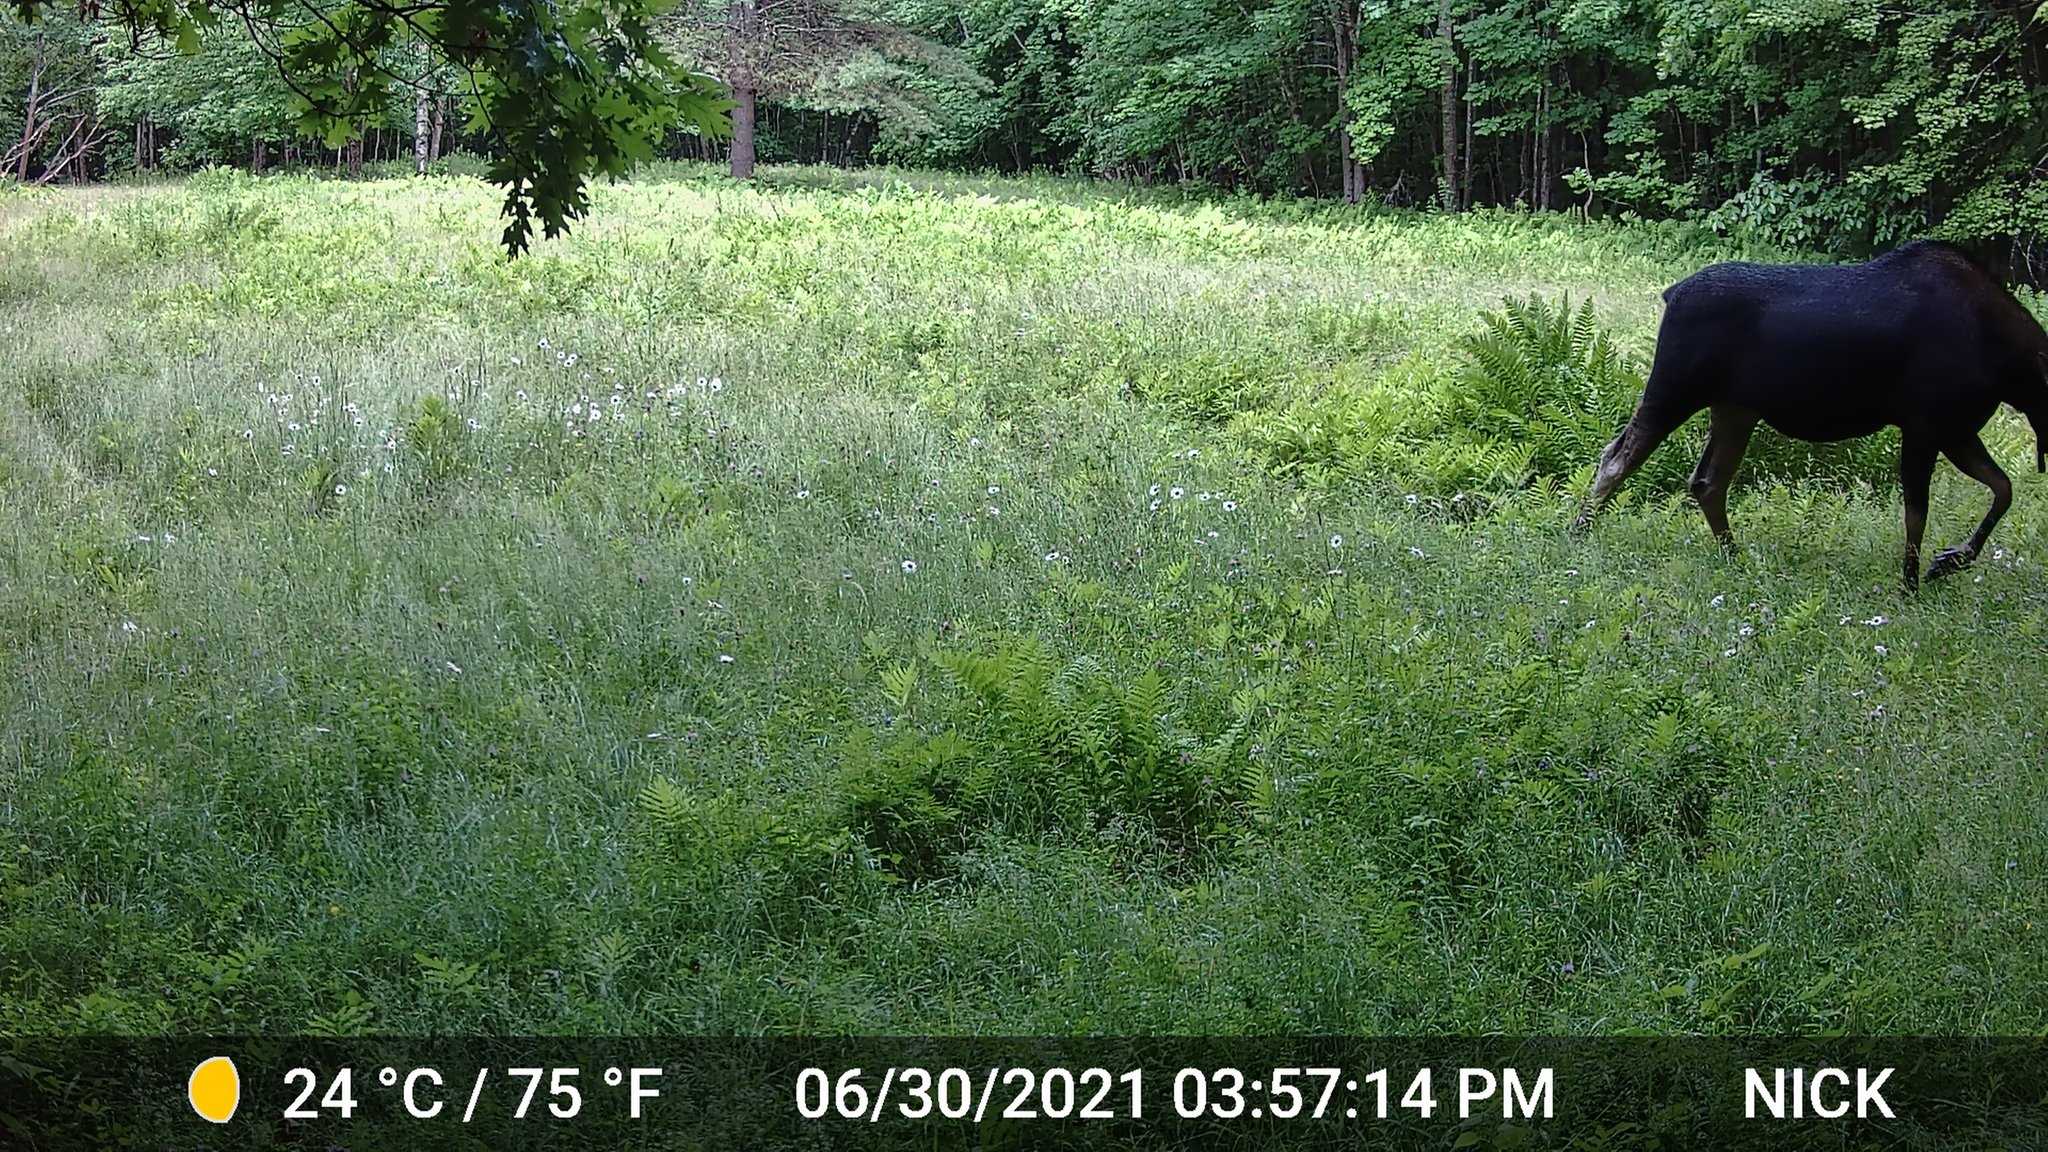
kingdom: Animalia
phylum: Chordata
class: Mammalia
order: Artiodactyla
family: Cervidae
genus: Alces
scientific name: Alces alces
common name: Moose
